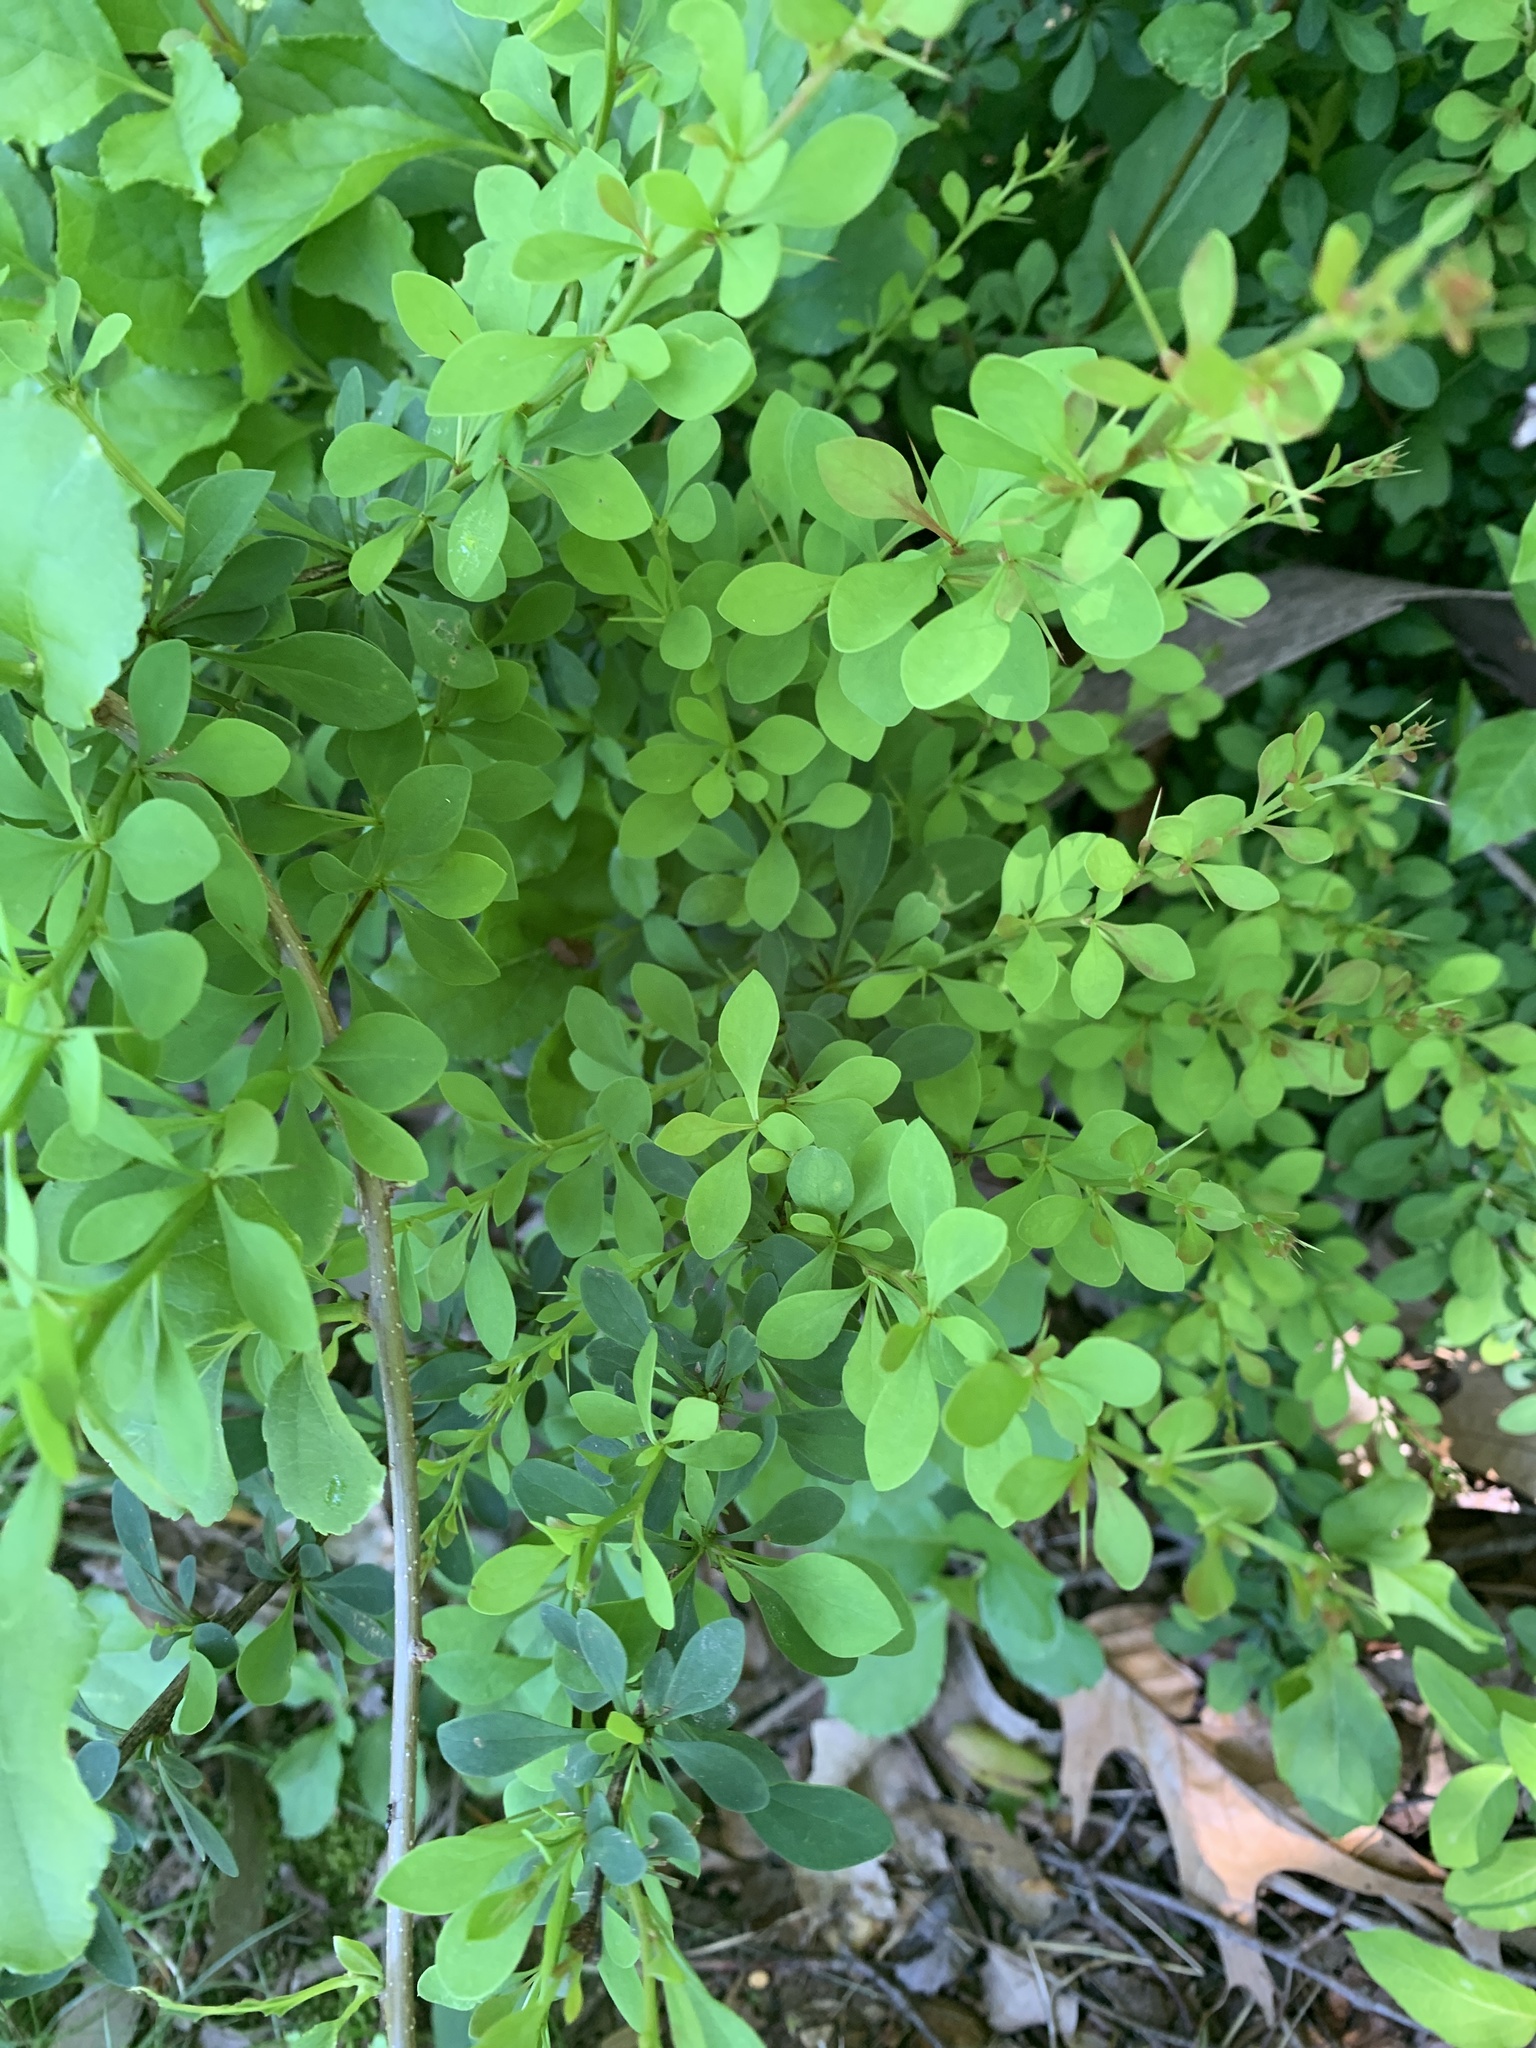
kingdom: Plantae
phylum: Tracheophyta
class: Magnoliopsida
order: Ranunculales
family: Berberidaceae
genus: Berberis
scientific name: Berberis thunbergii
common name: Japanese barberry
